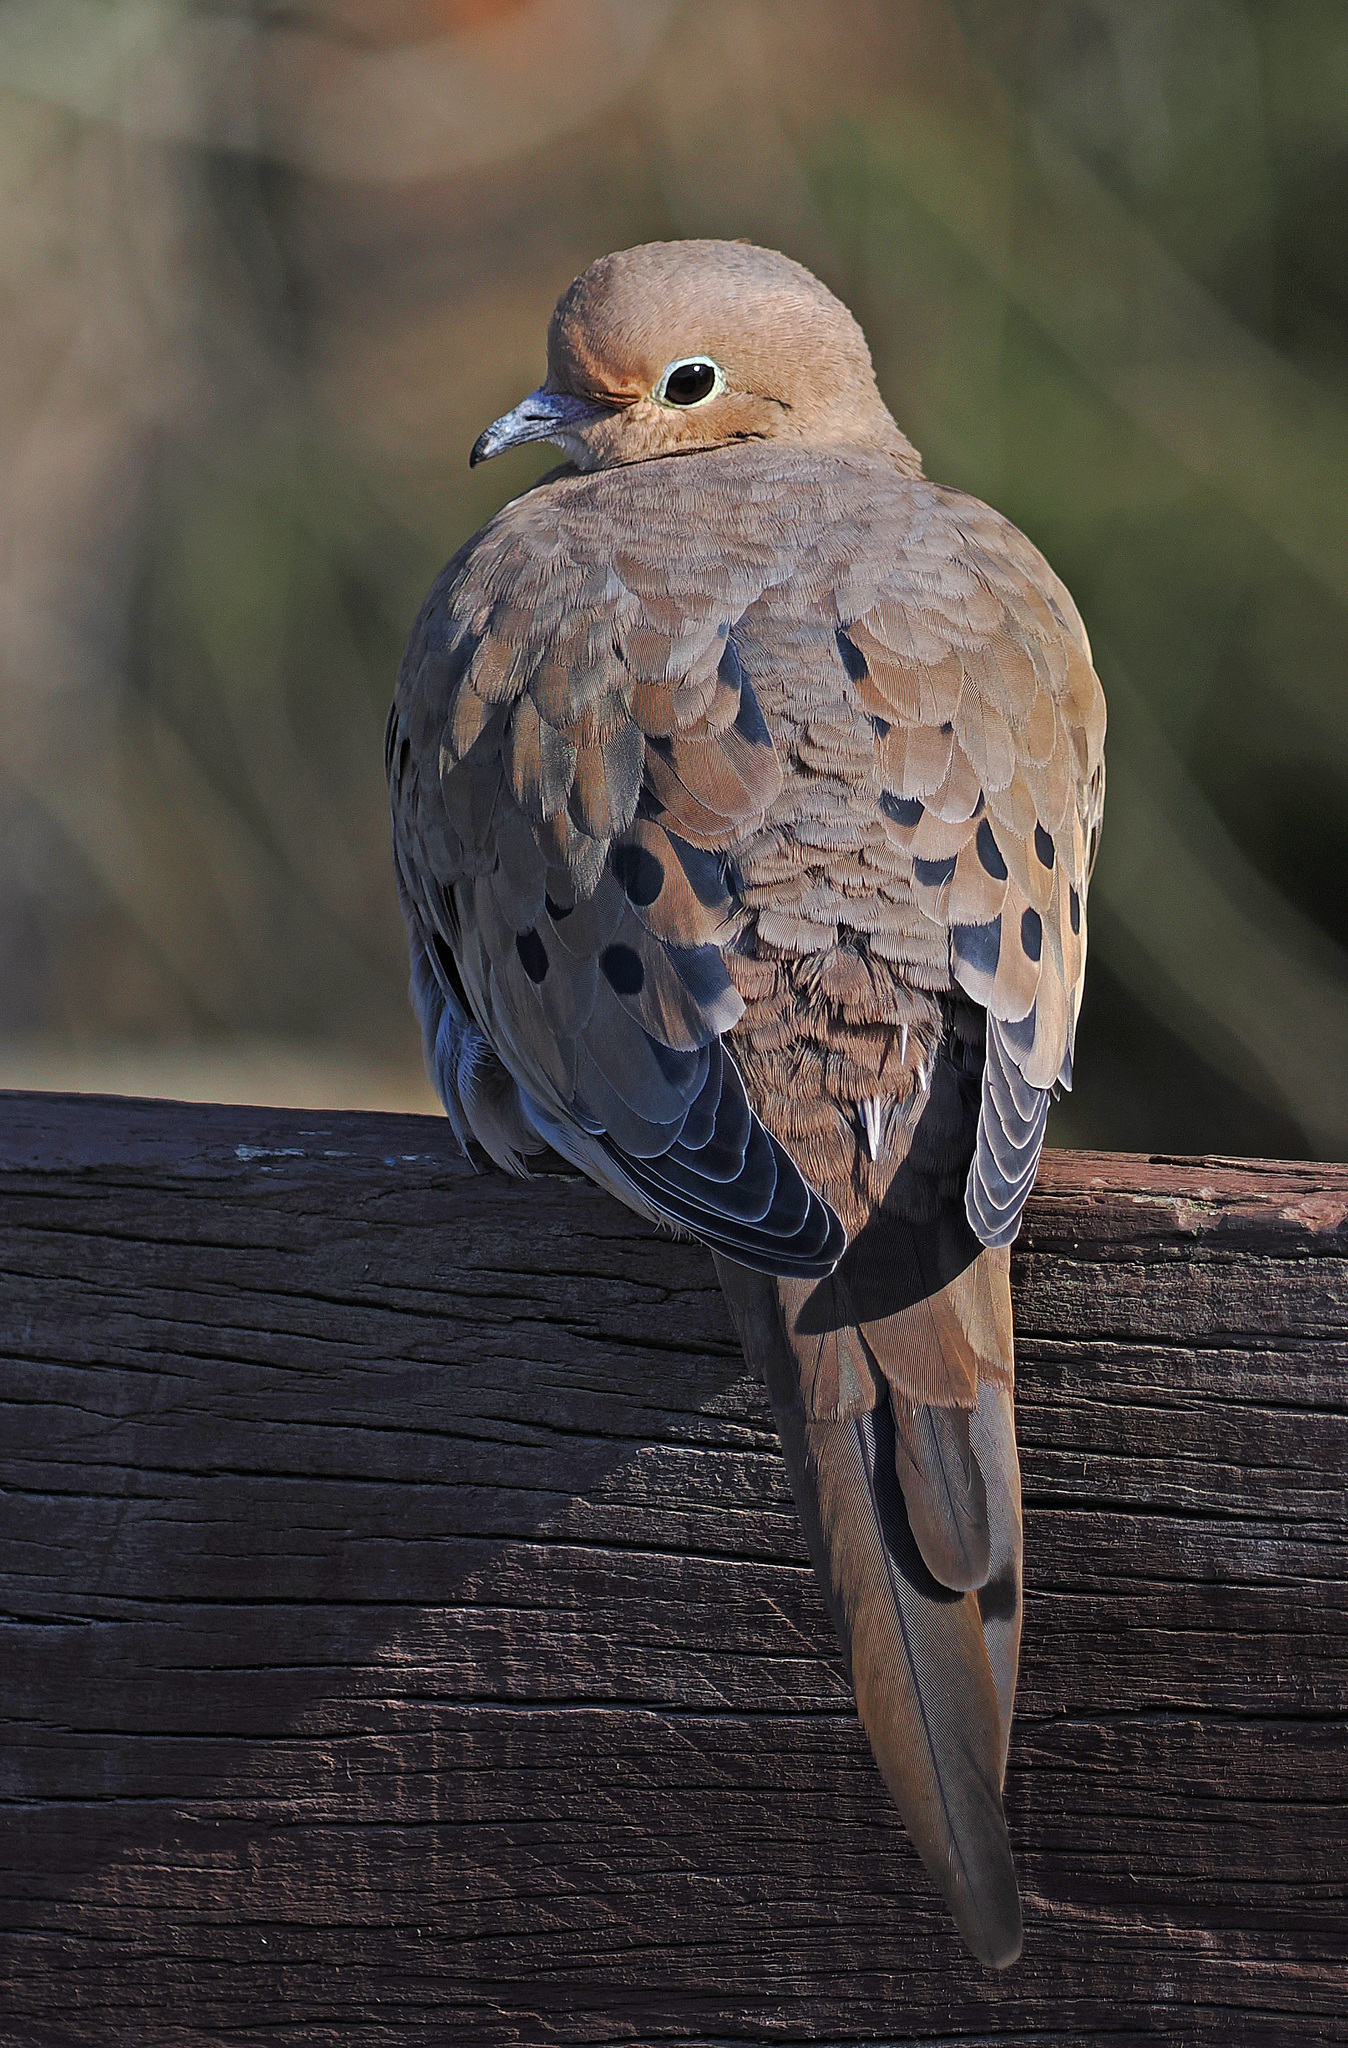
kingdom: Animalia
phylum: Chordata
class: Aves
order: Columbiformes
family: Columbidae
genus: Zenaida
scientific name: Zenaida macroura
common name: Mourning dove
